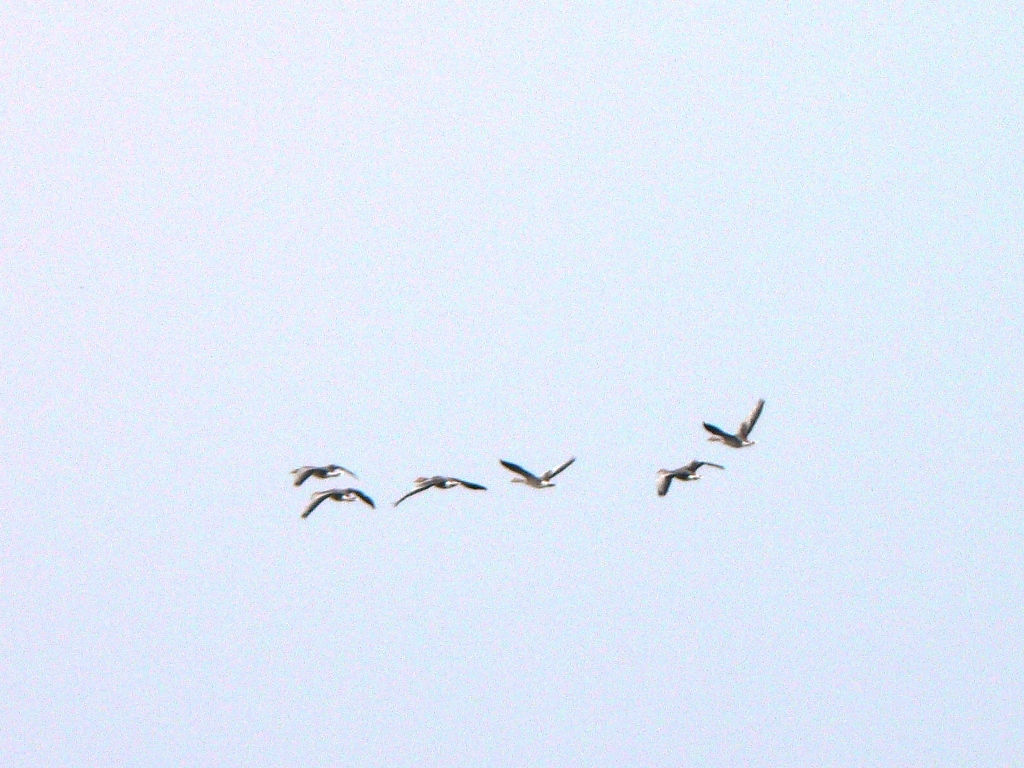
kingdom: Animalia
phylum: Chordata
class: Aves
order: Anseriformes
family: Anatidae
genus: Anser
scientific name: Anser anser
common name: Greylag goose
